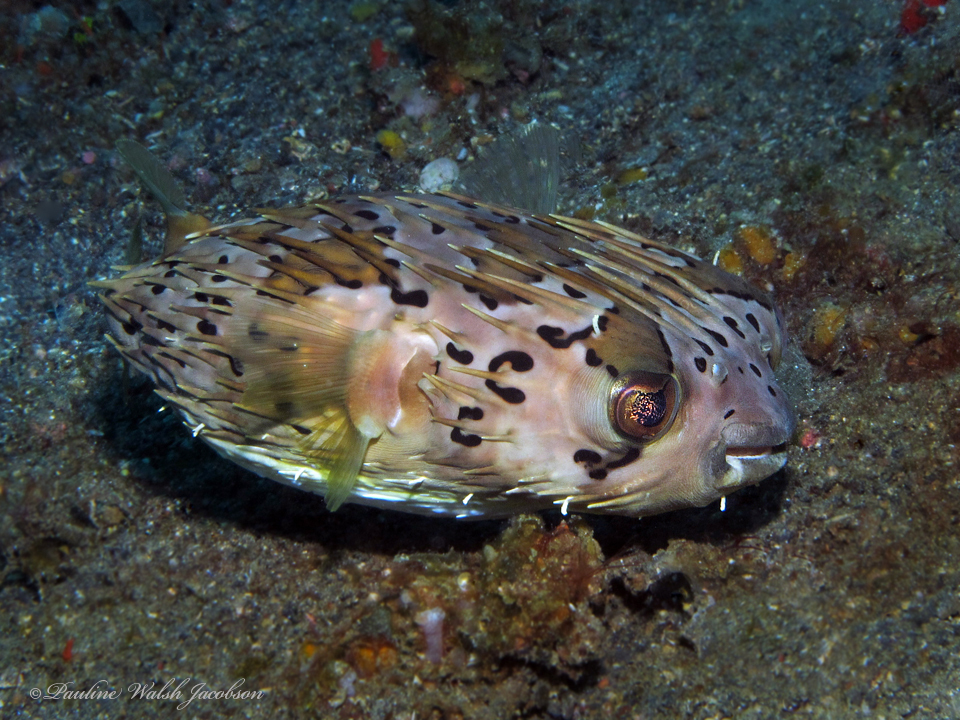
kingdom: Animalia
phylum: Chordata
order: Tetraodontiformes
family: Diodontidae
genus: Diodon
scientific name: Diodon holocanthus
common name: Balloonfish
